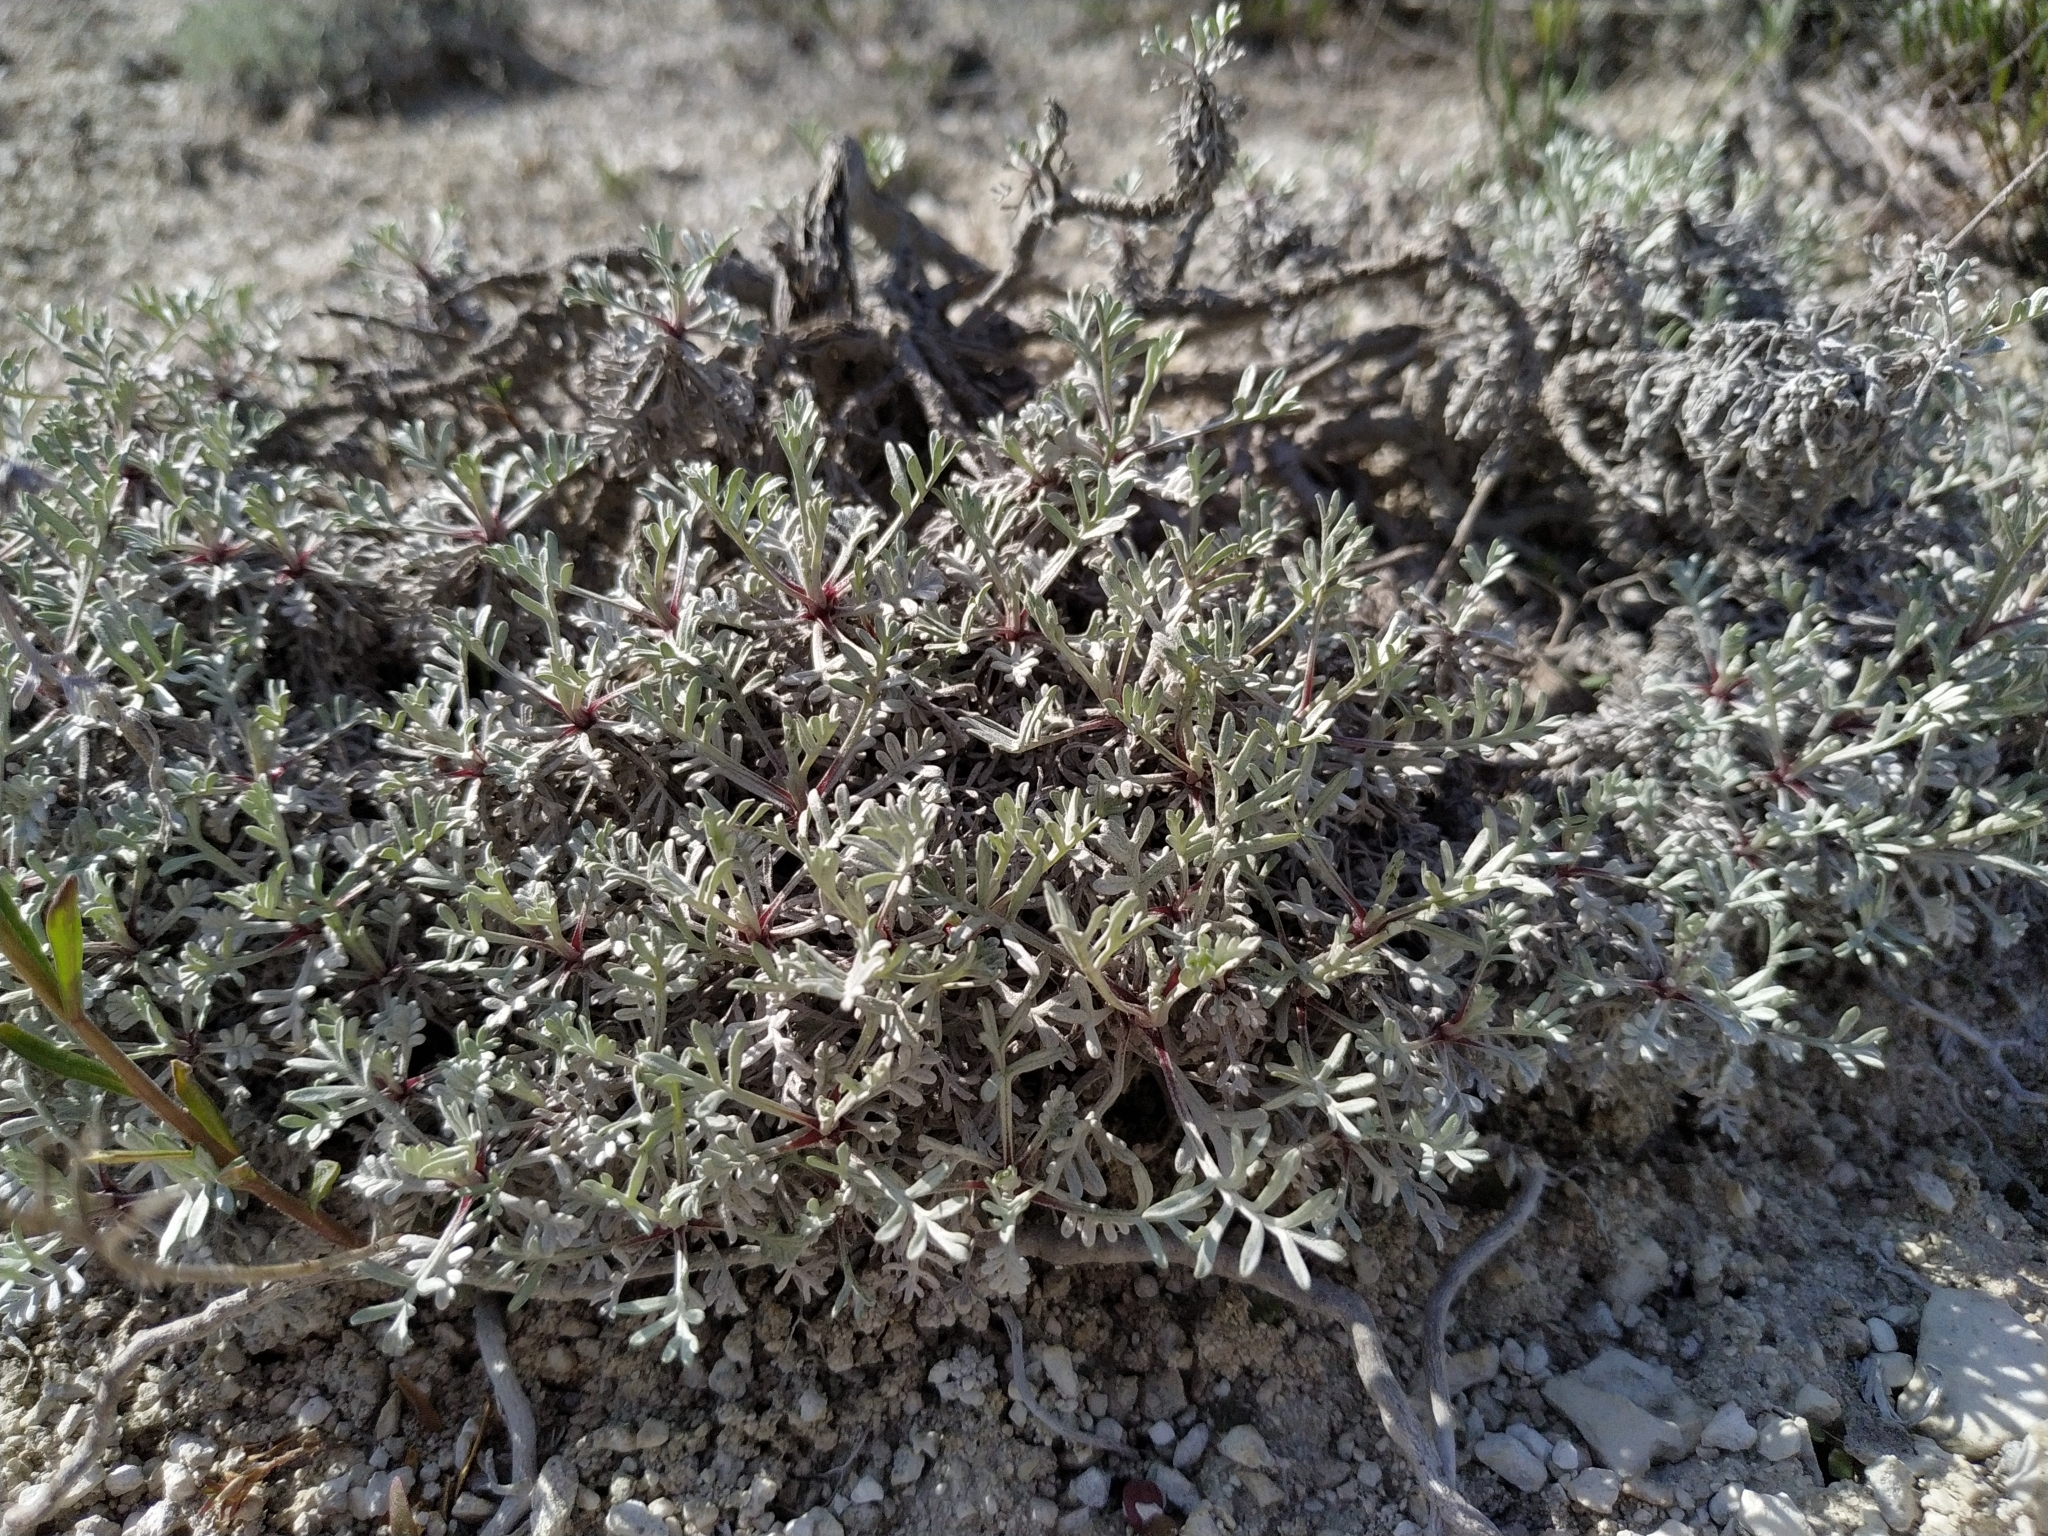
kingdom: Plantae
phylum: Tracheophyta
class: Magnoliopsida
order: Asterales
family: Asteraceae
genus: Artemisia
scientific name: Artemisia hololeuca
